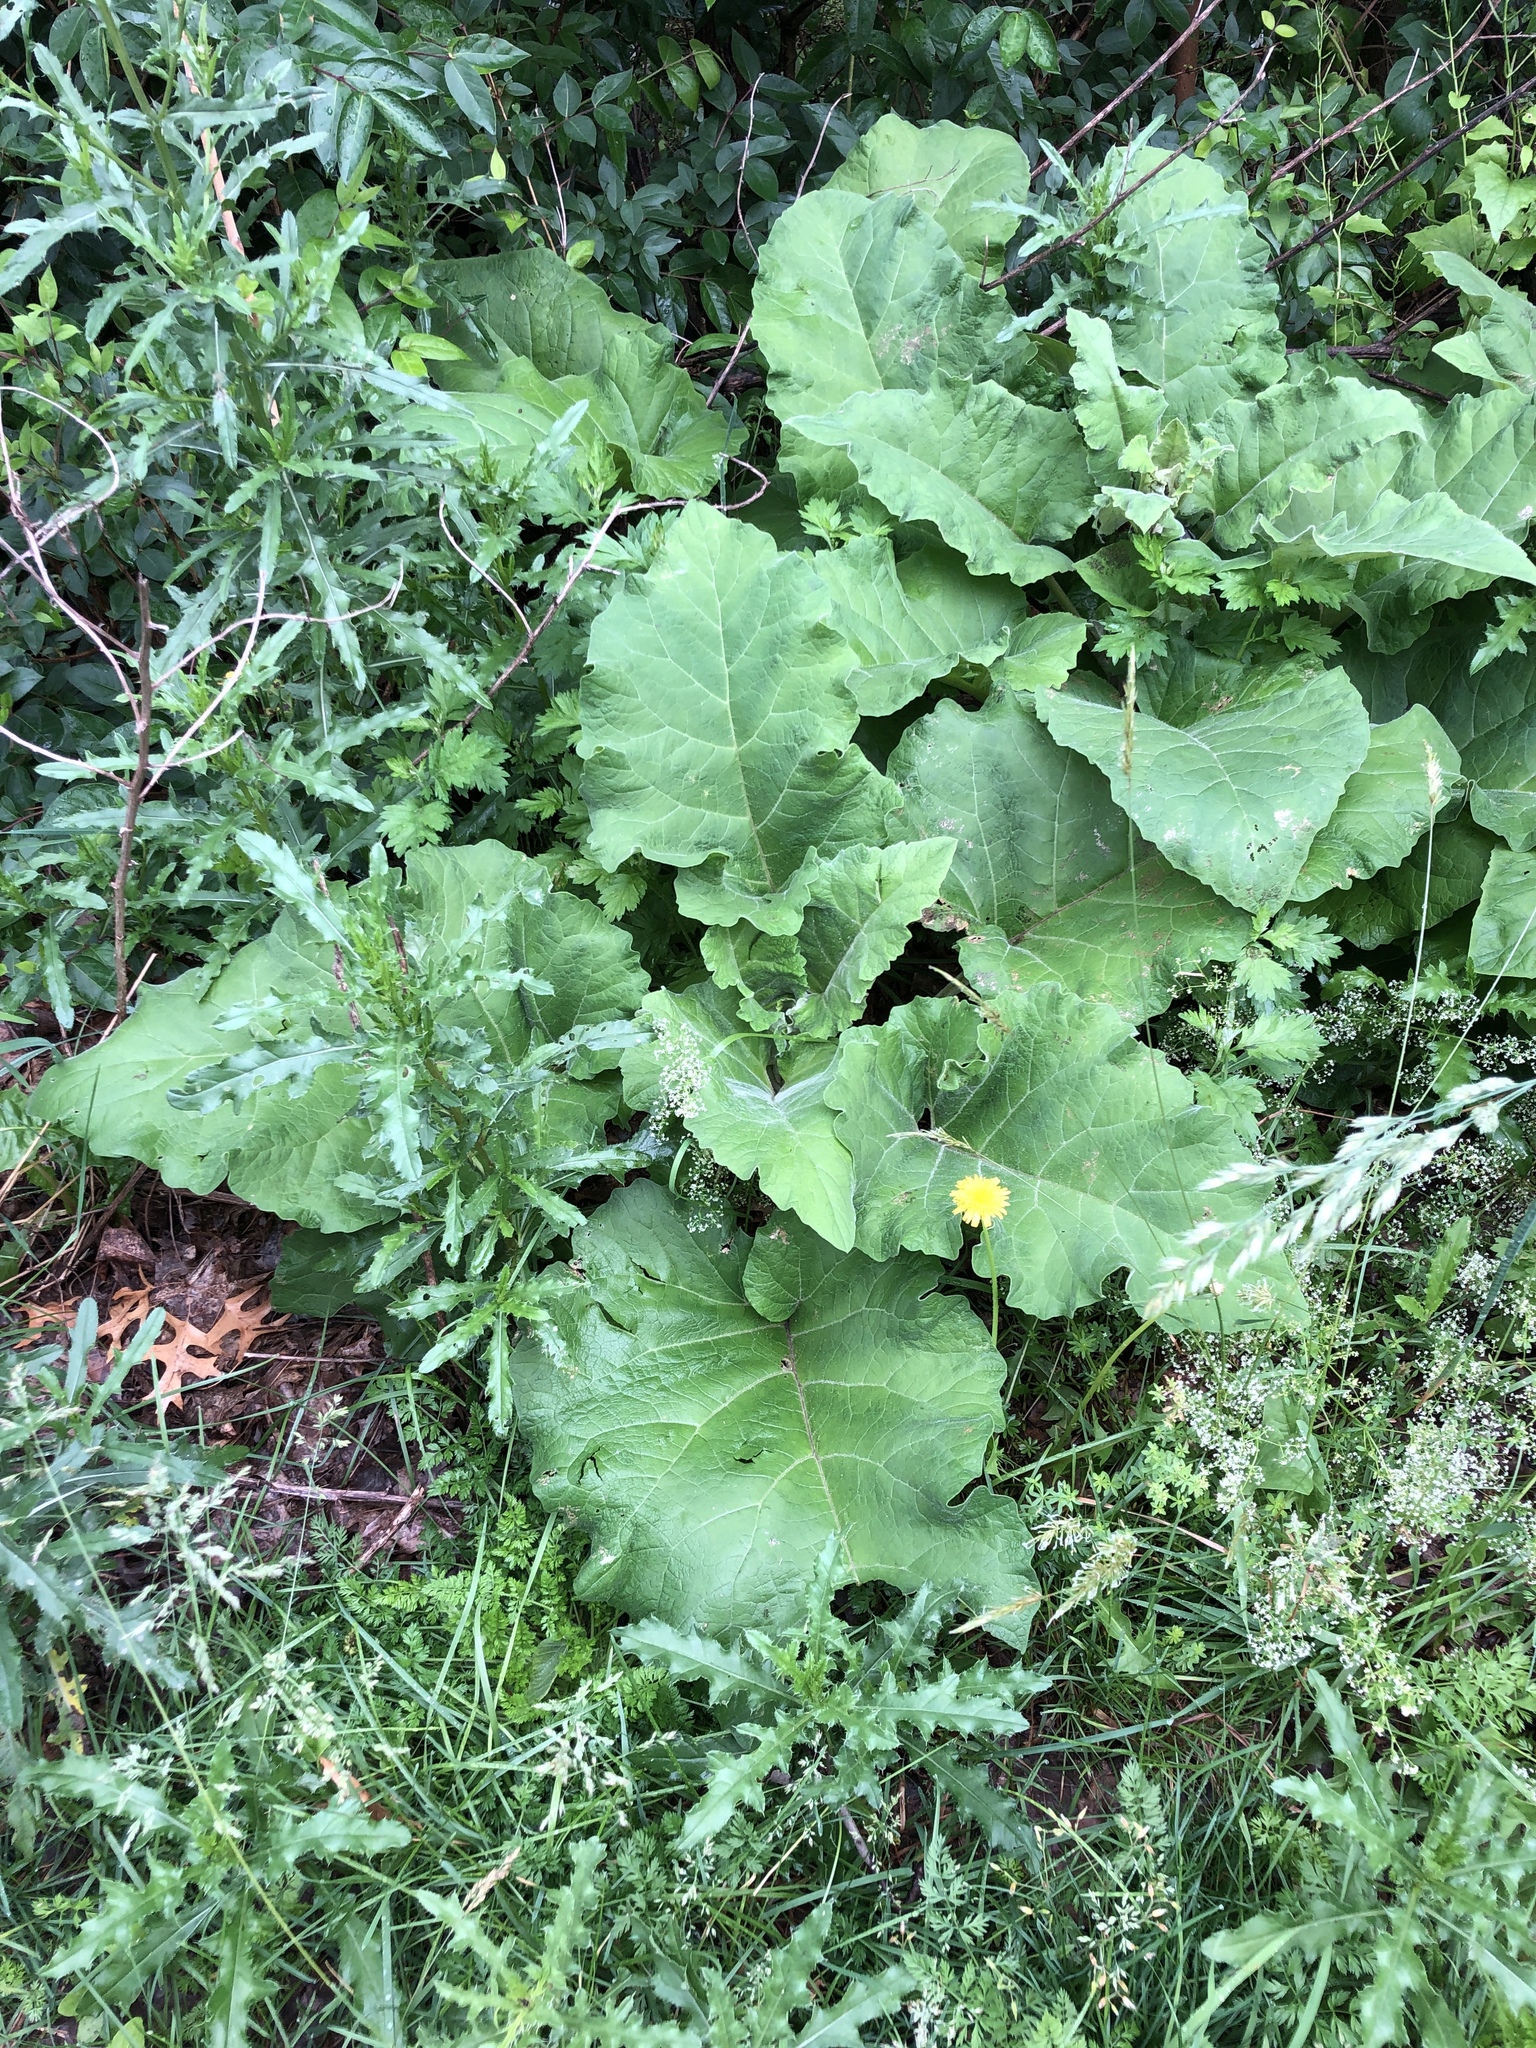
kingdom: Plantae
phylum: Tracheophyta
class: Magnoliopsida
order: Asterales
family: Asteraceae
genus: Arctium
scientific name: Arctium
